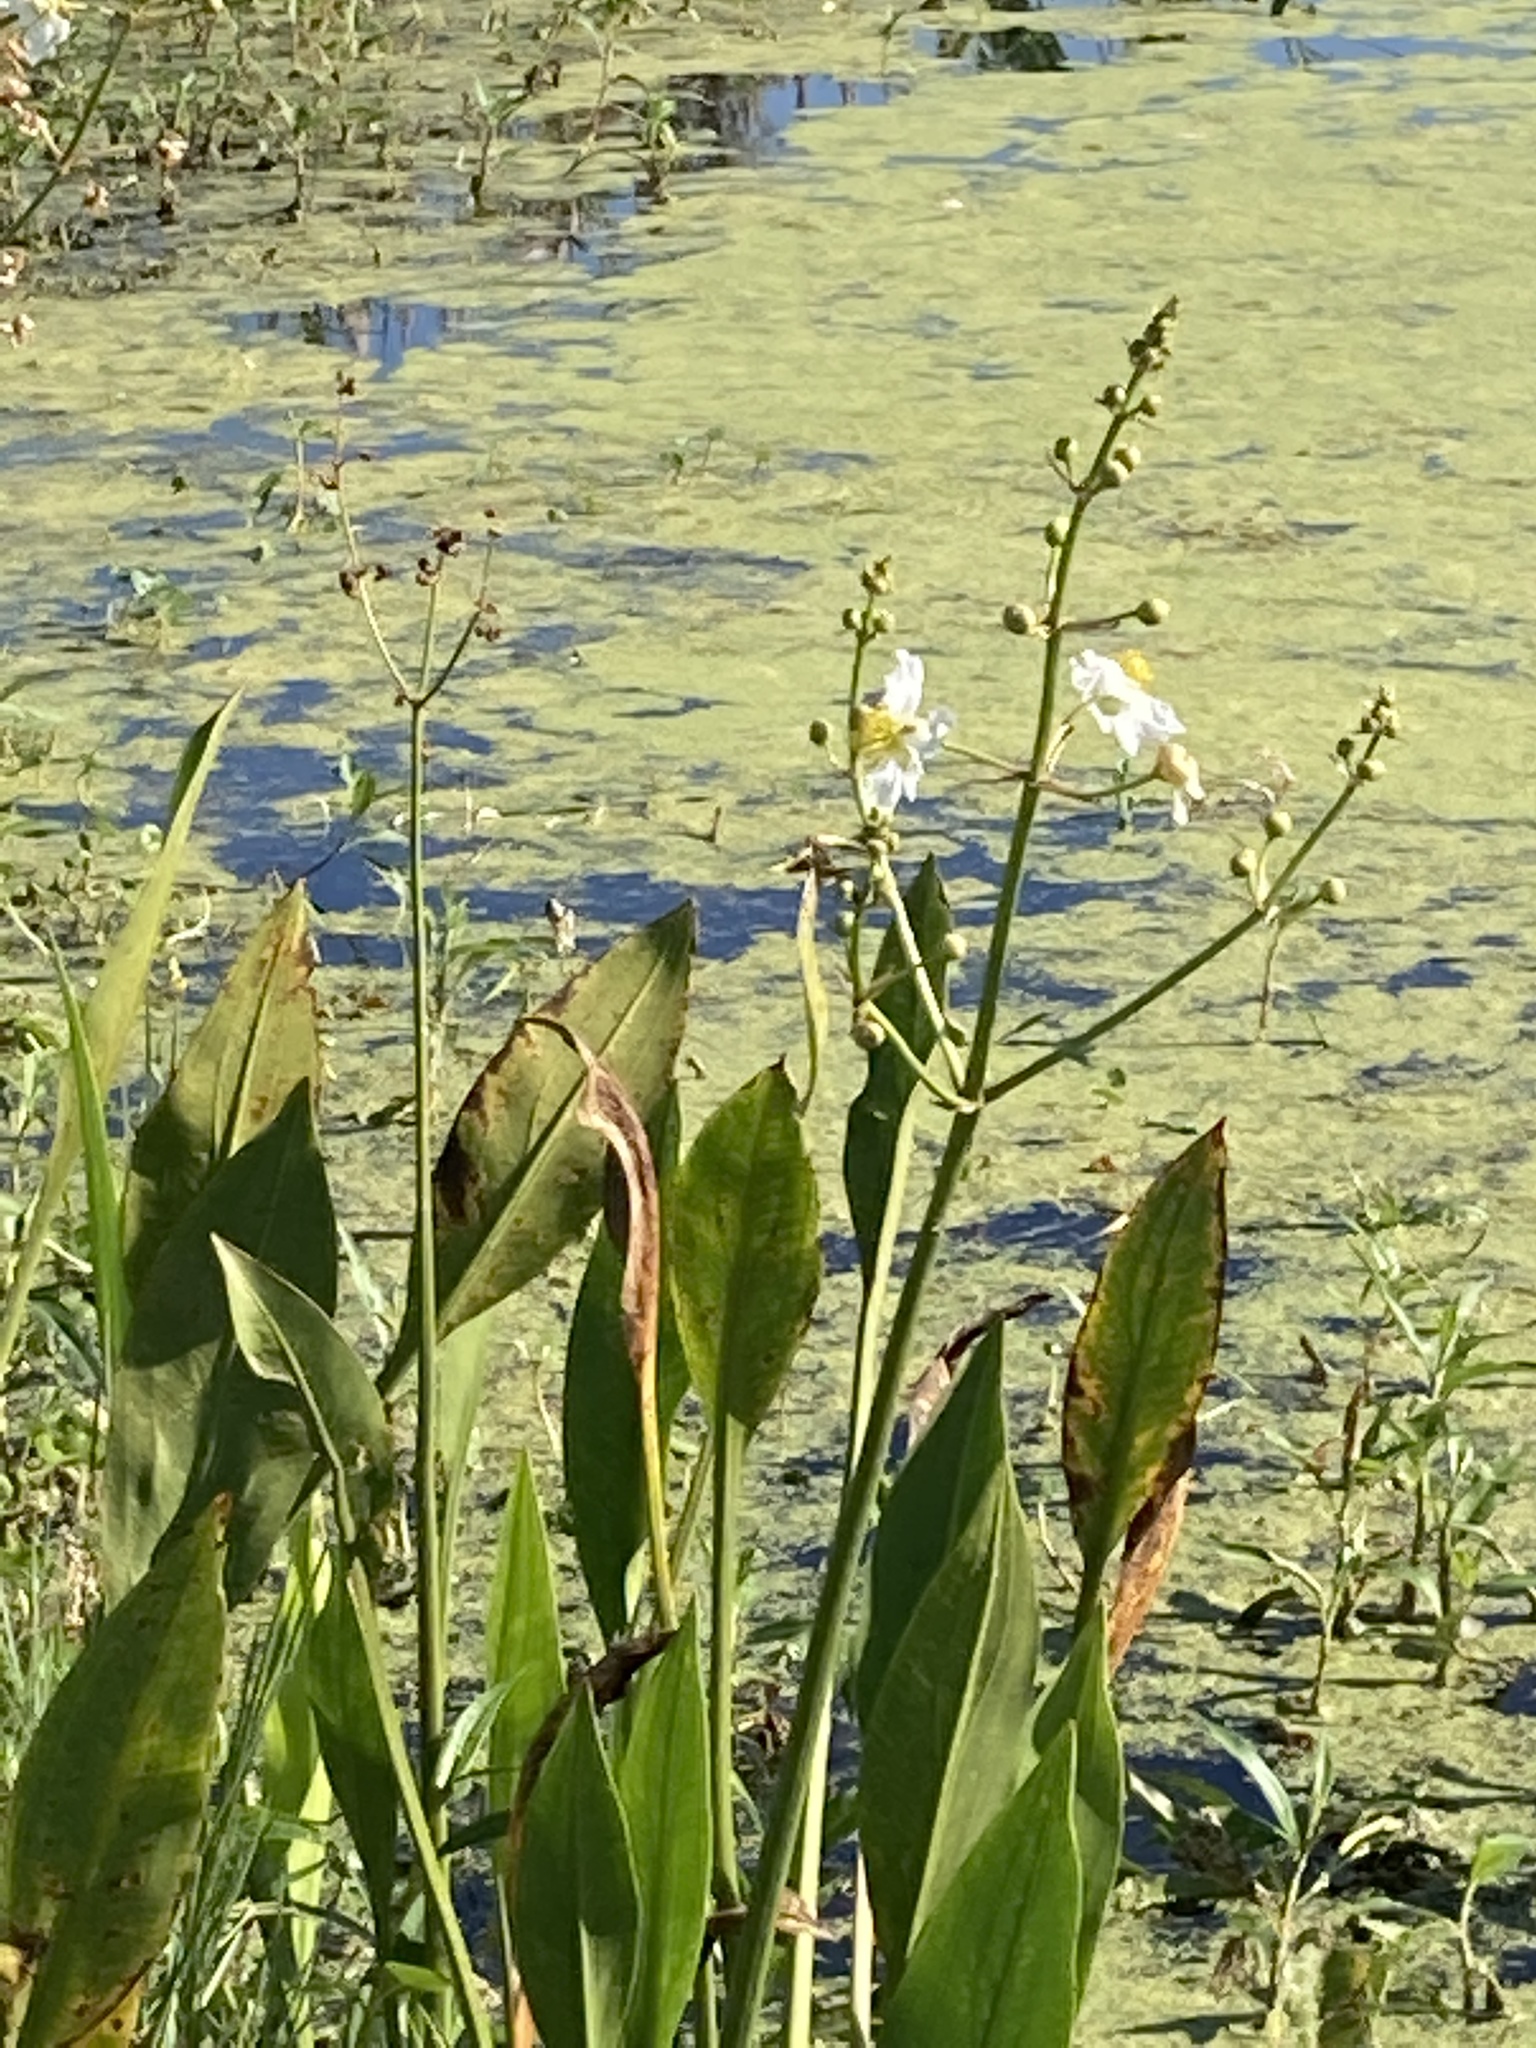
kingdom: Plantae
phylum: Tracheophyta
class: Liliopsida
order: Alismatales
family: Alismataceae
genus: Sagittaria
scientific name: Sagittaria lancifolia
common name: Lance-leaf arrowhead
